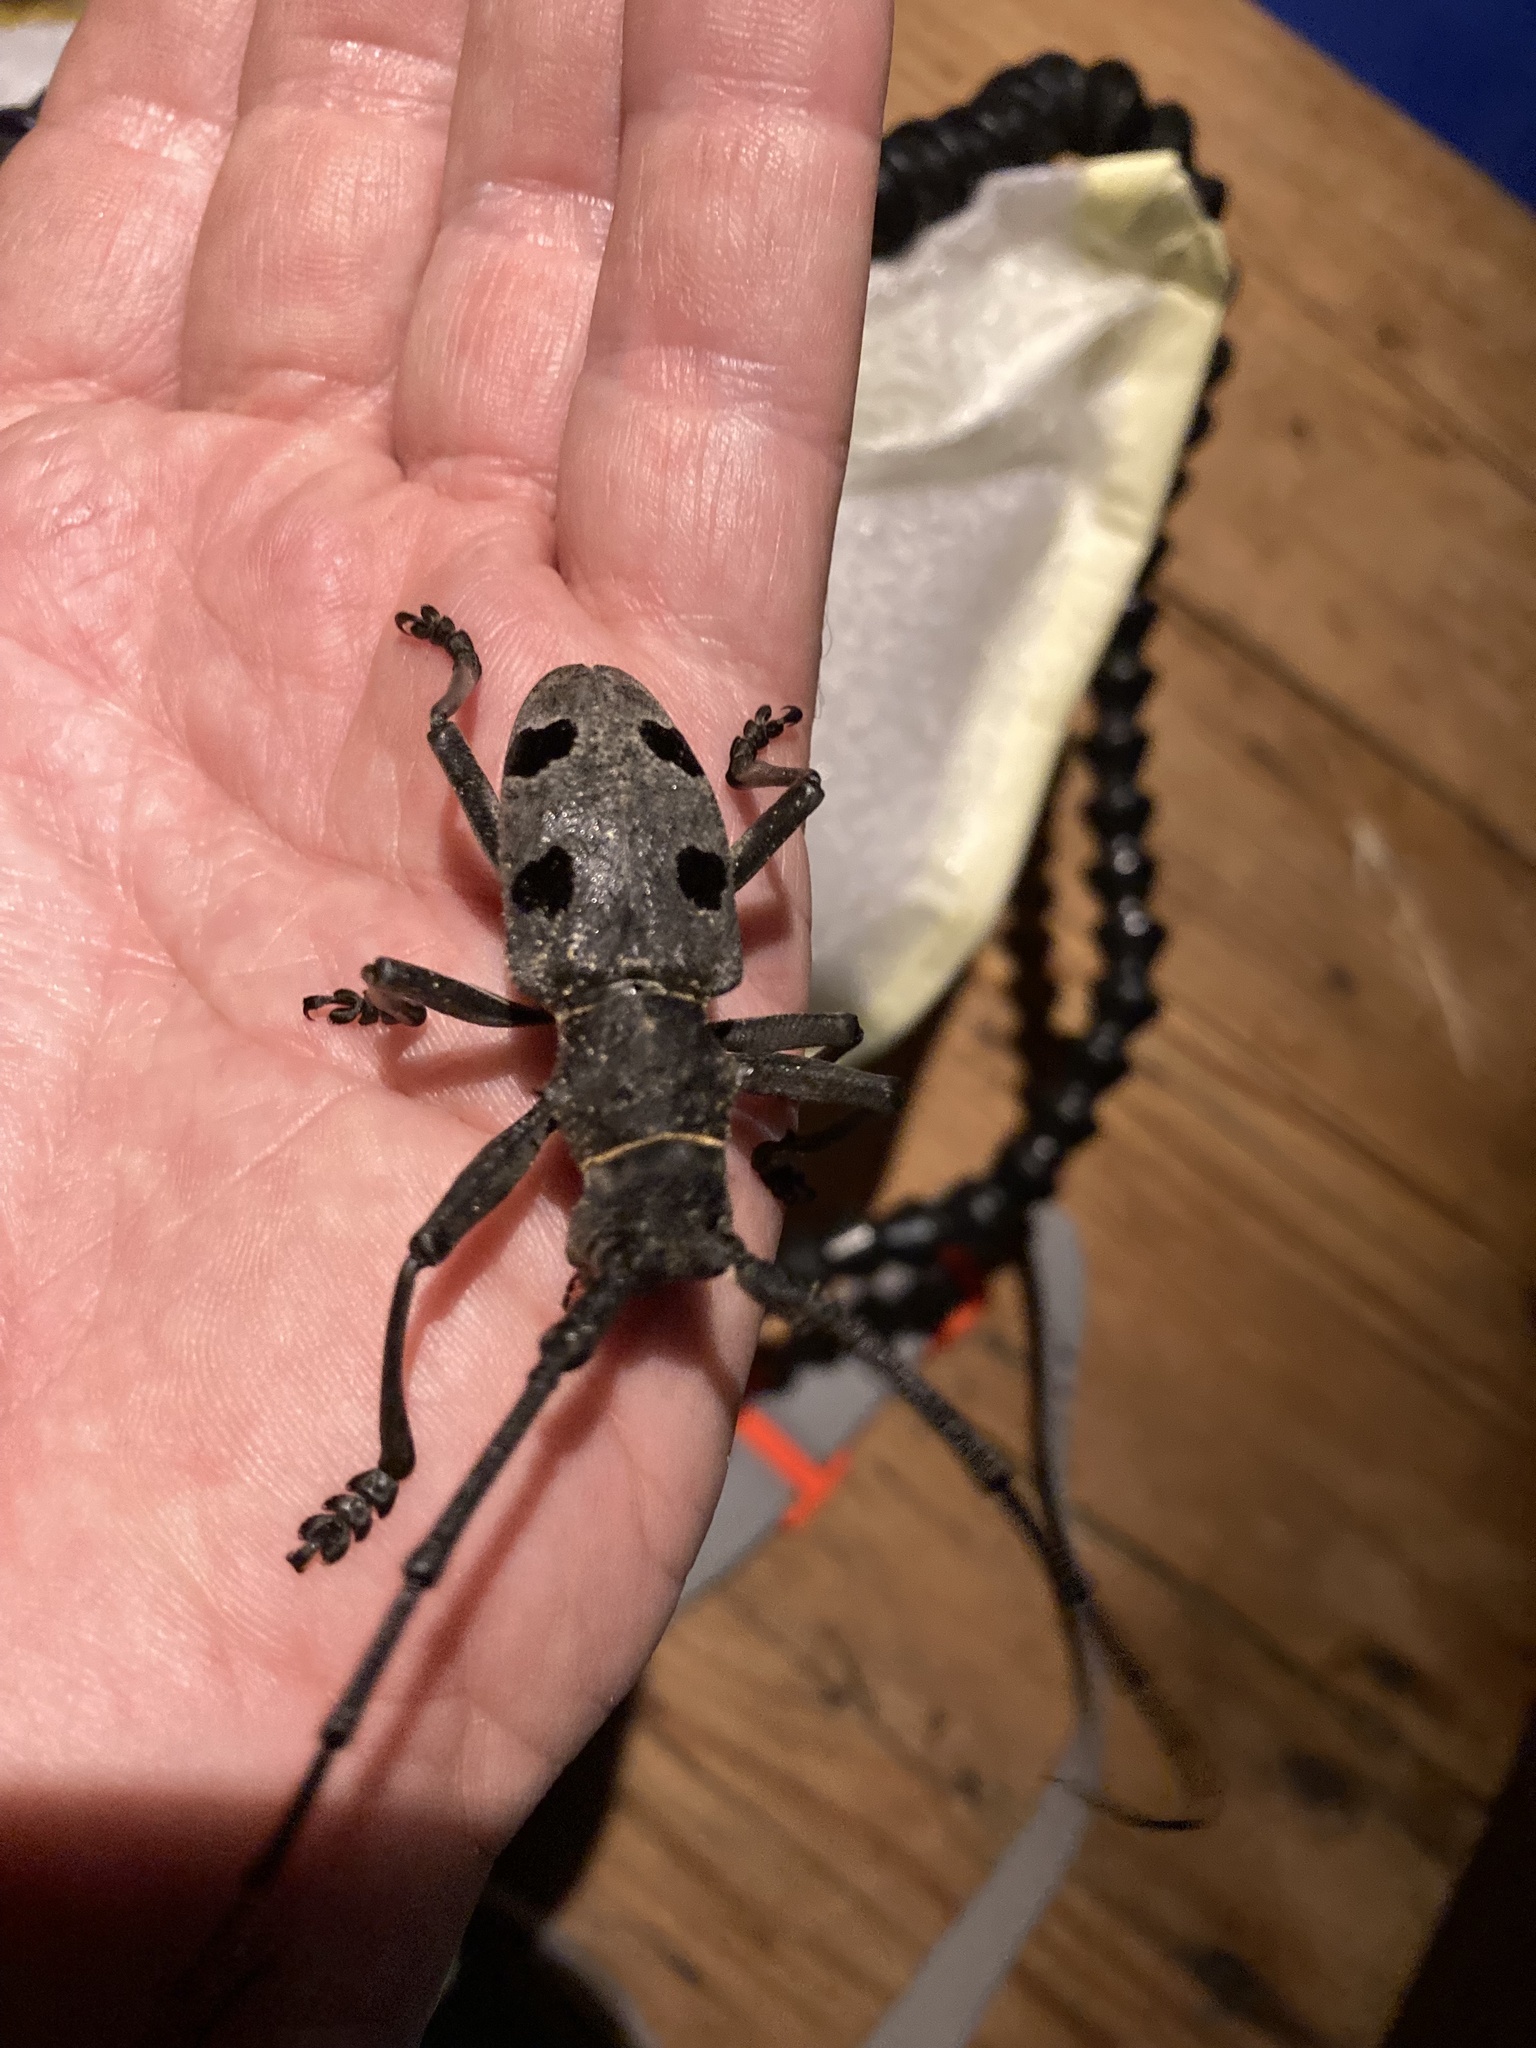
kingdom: Animalia
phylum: Arthropoda
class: Insecta
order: Coleoptera
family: Cerambycidae
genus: Morimus
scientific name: Morimus funereus
